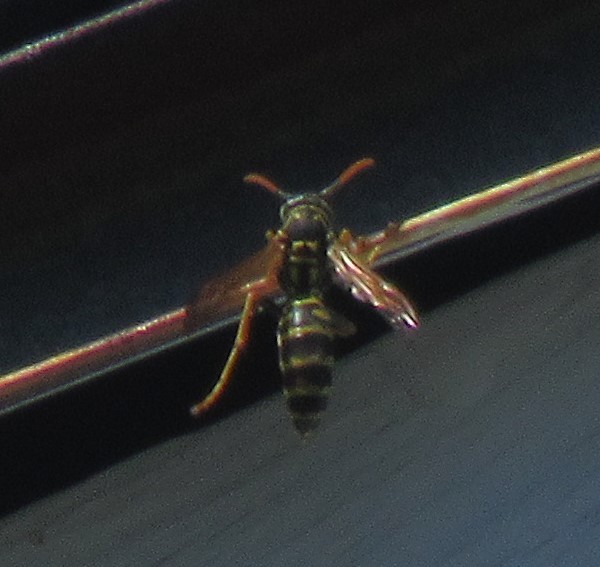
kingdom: Animalia
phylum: Arthropoda
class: Insecta
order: Hymenoptera
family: Eumenidae
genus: Polistes
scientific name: Polistes dominula
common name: Paper wasp
